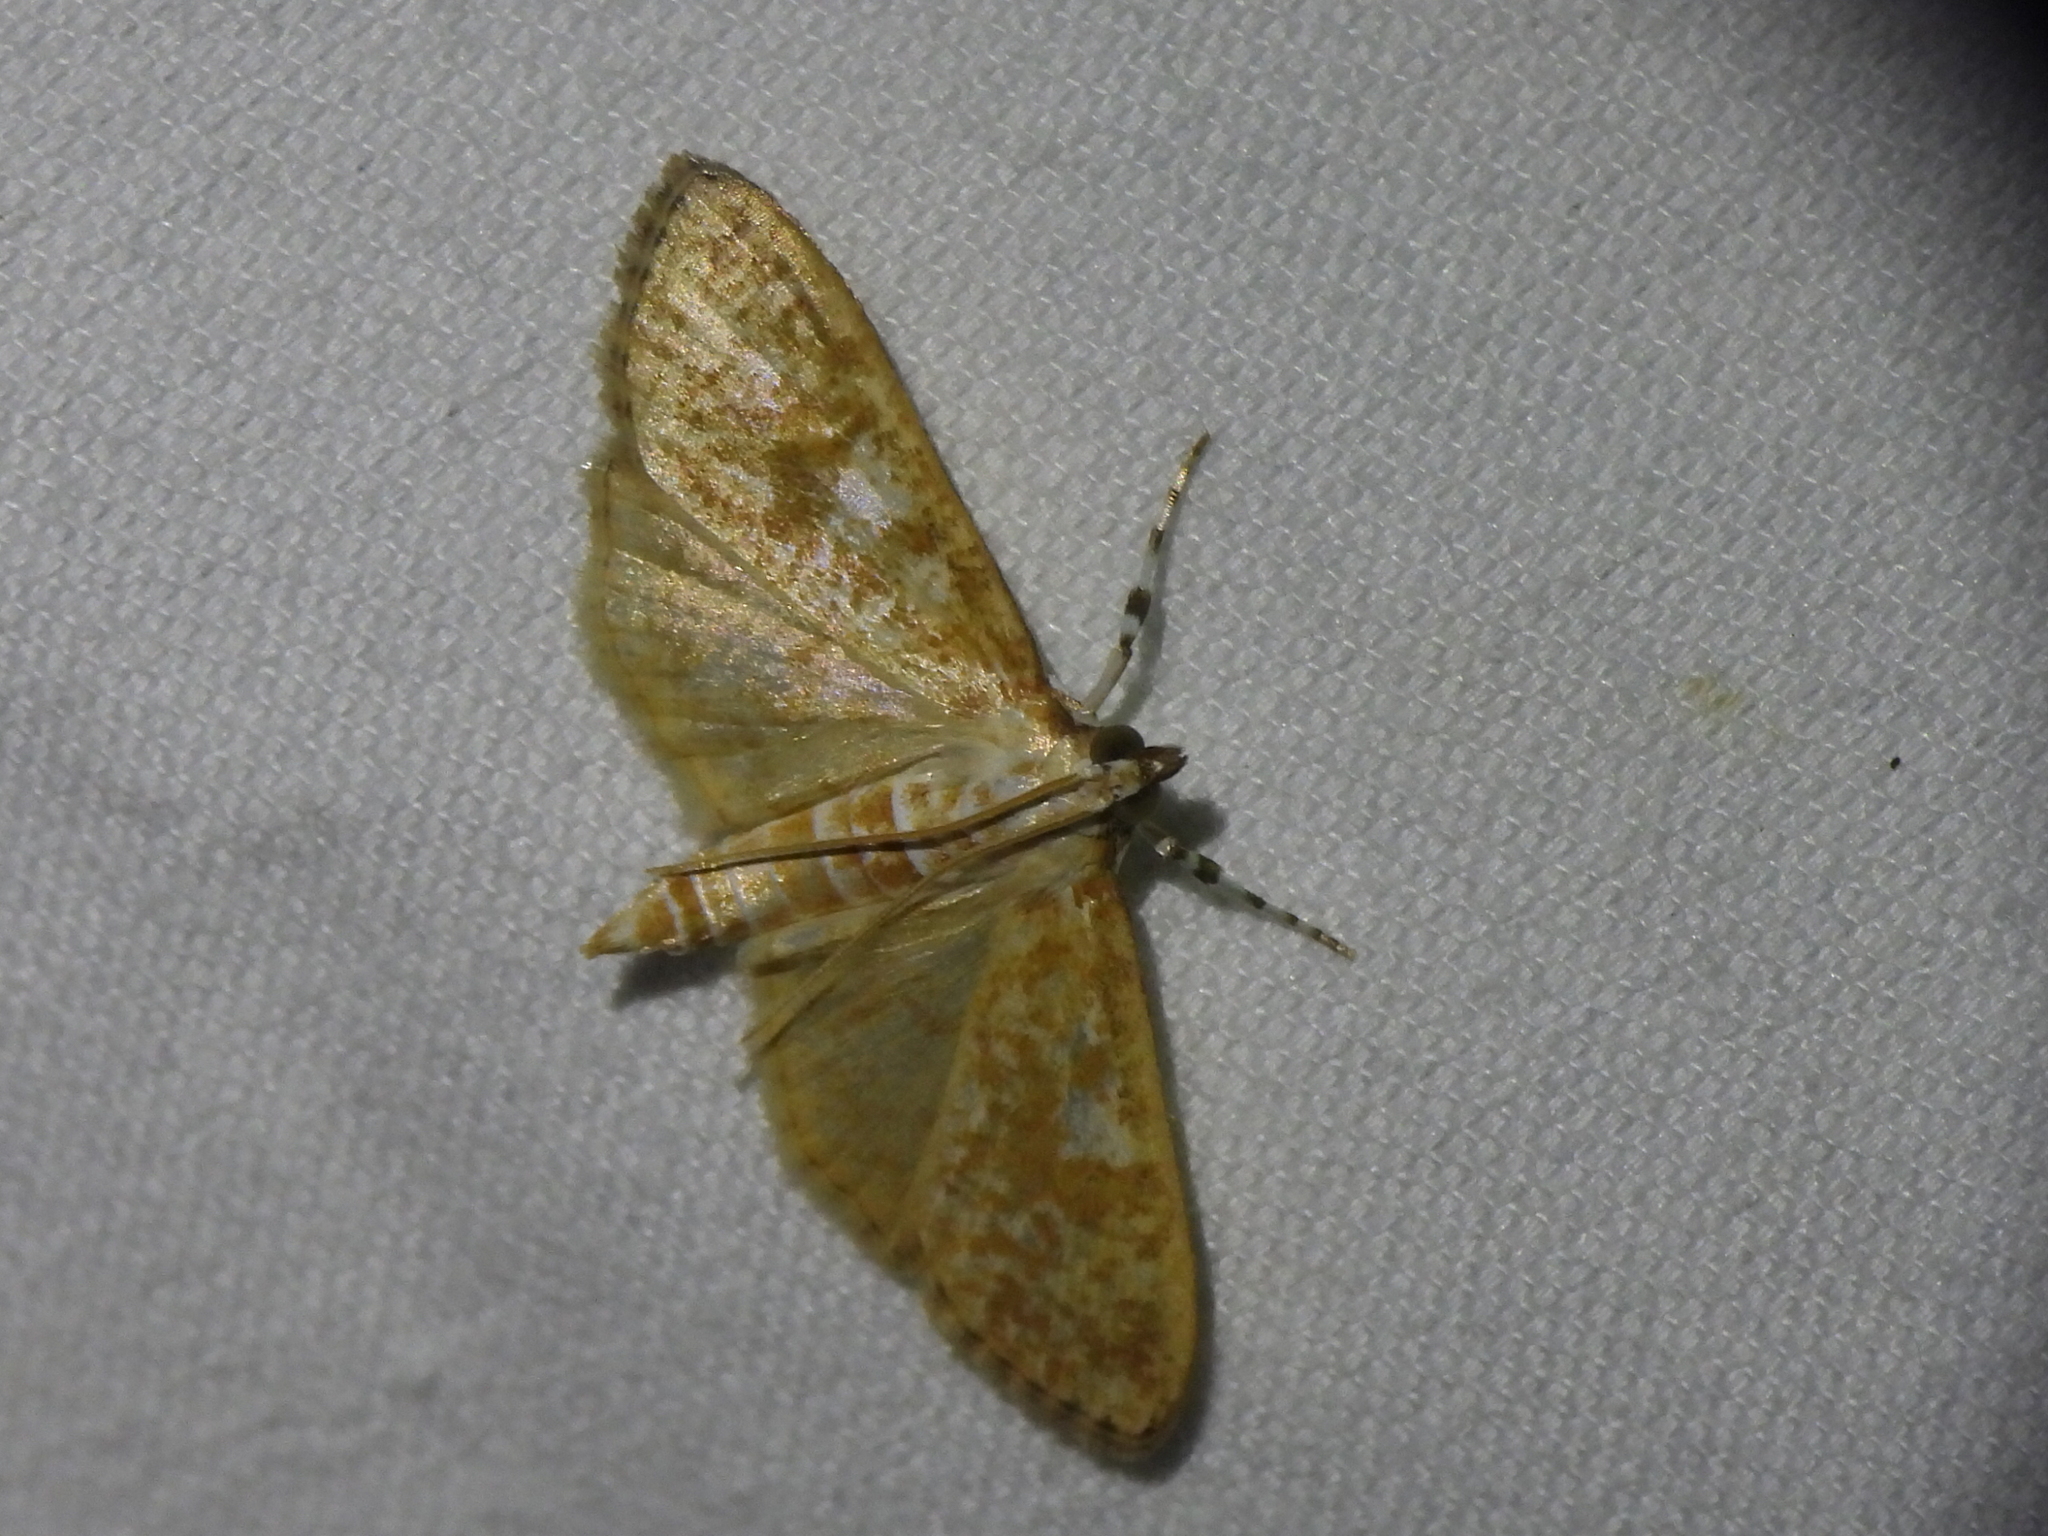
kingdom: Animalia
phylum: Arthropoda
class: Insecta
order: Lepidoptera
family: Crambidae
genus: Palpita
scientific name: Palpita freemanalis
